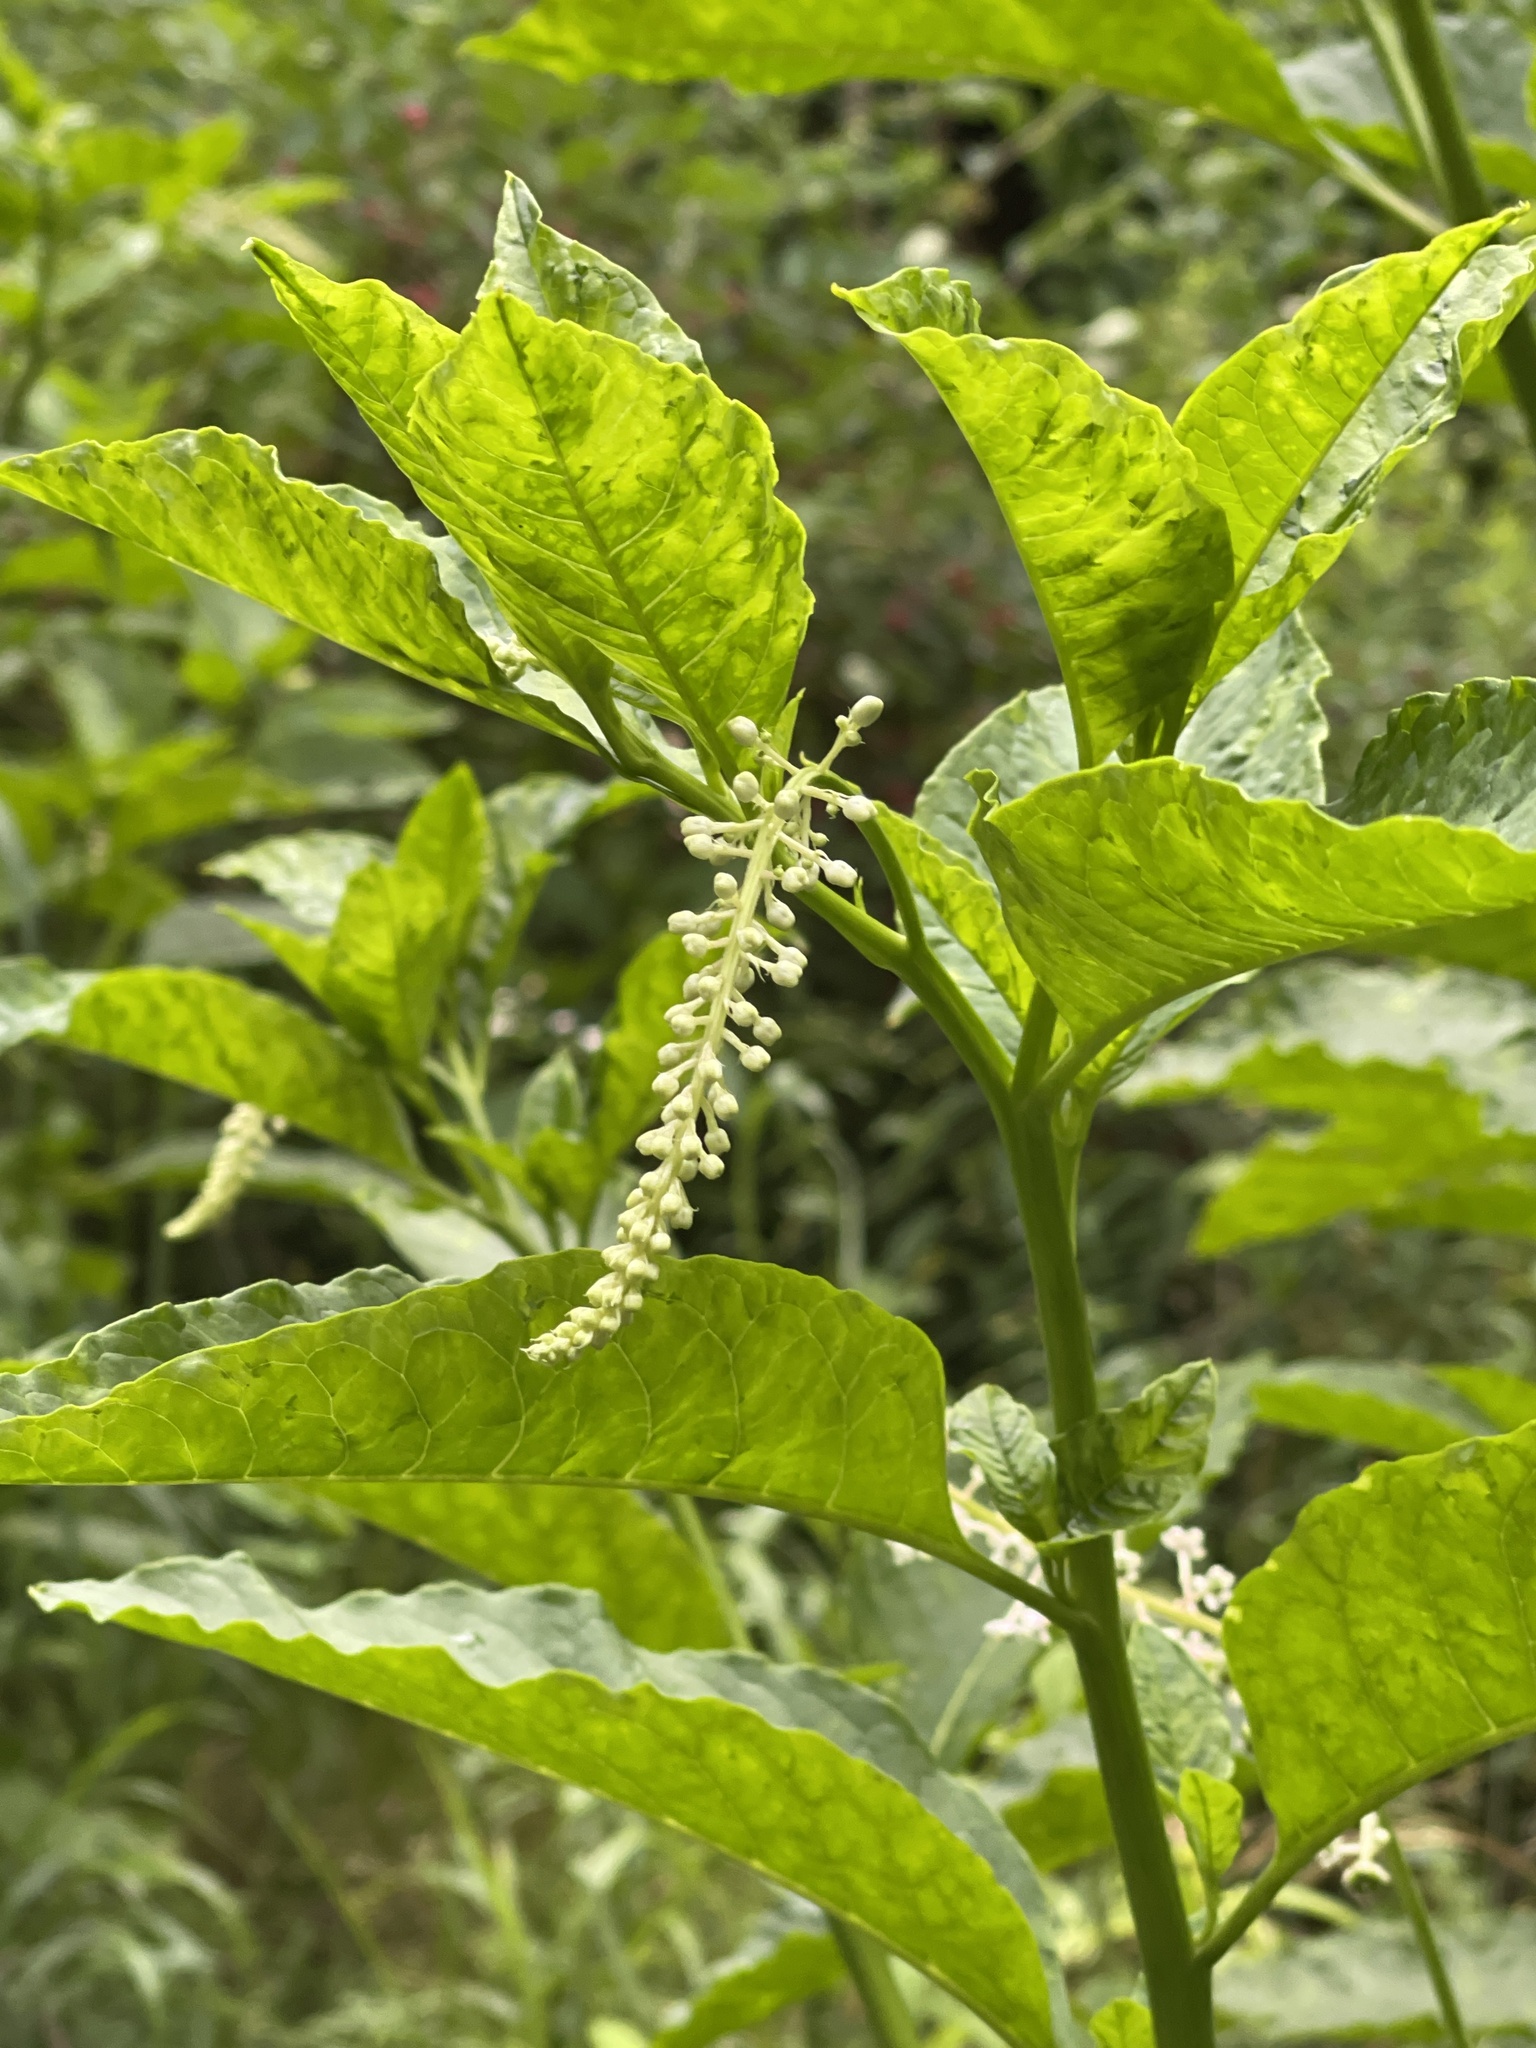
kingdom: Plantae
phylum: Tracheophyta
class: Magnoliopsida
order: Caryophyllales
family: Phytolaccaceae
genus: Phytolacca
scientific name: Phytolacca americana
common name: American pokeweed
